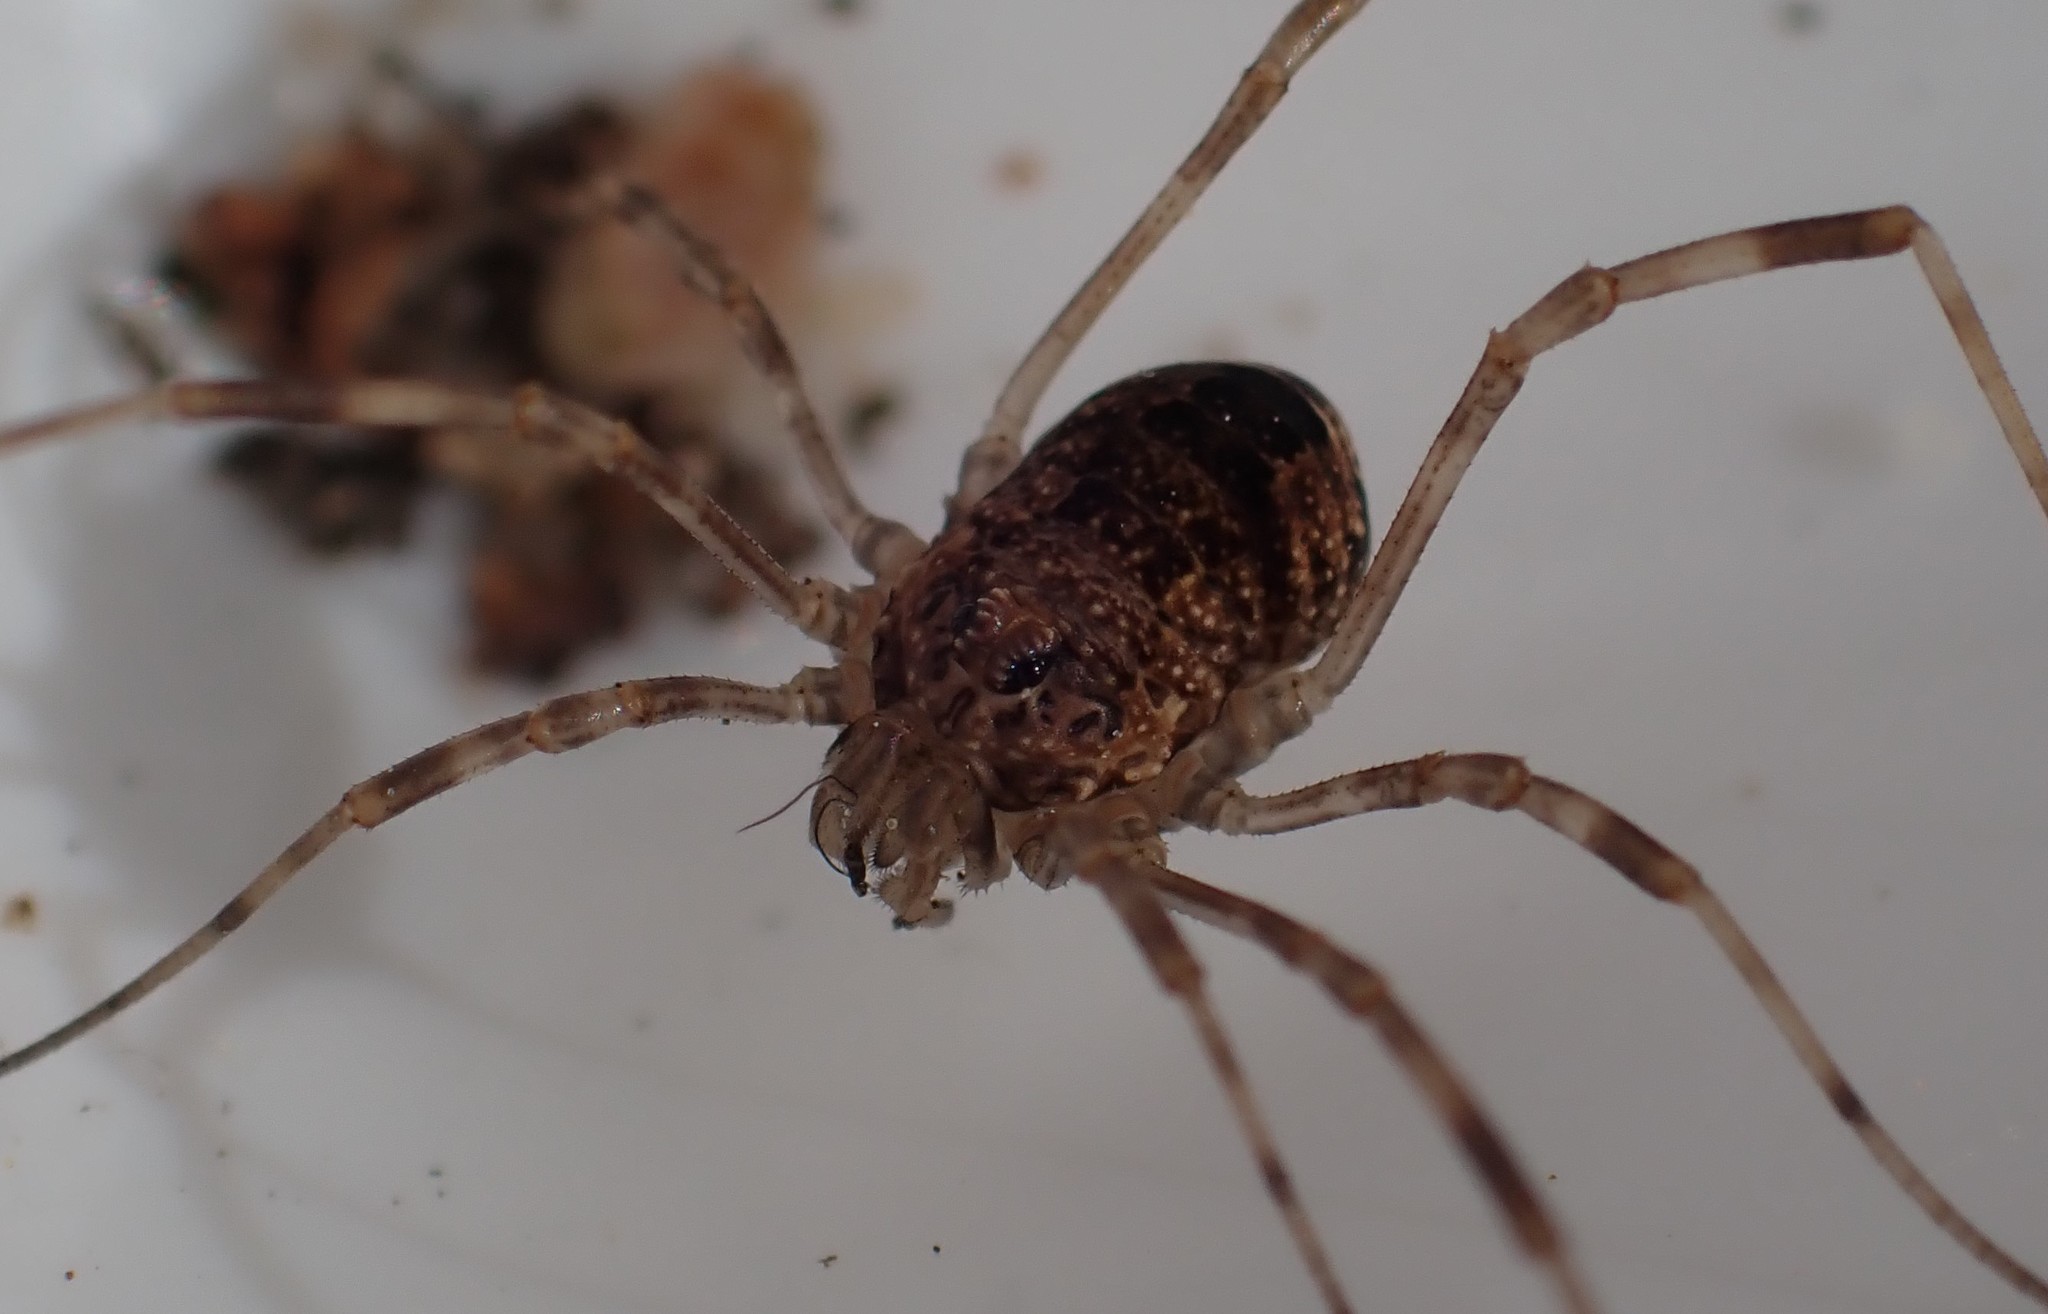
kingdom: Animalia
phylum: Arthropoda
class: Arachnida
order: Opiliones
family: Phalangiidae
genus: Rilaena
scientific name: Rilaena triangularis
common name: Spring harvestman
